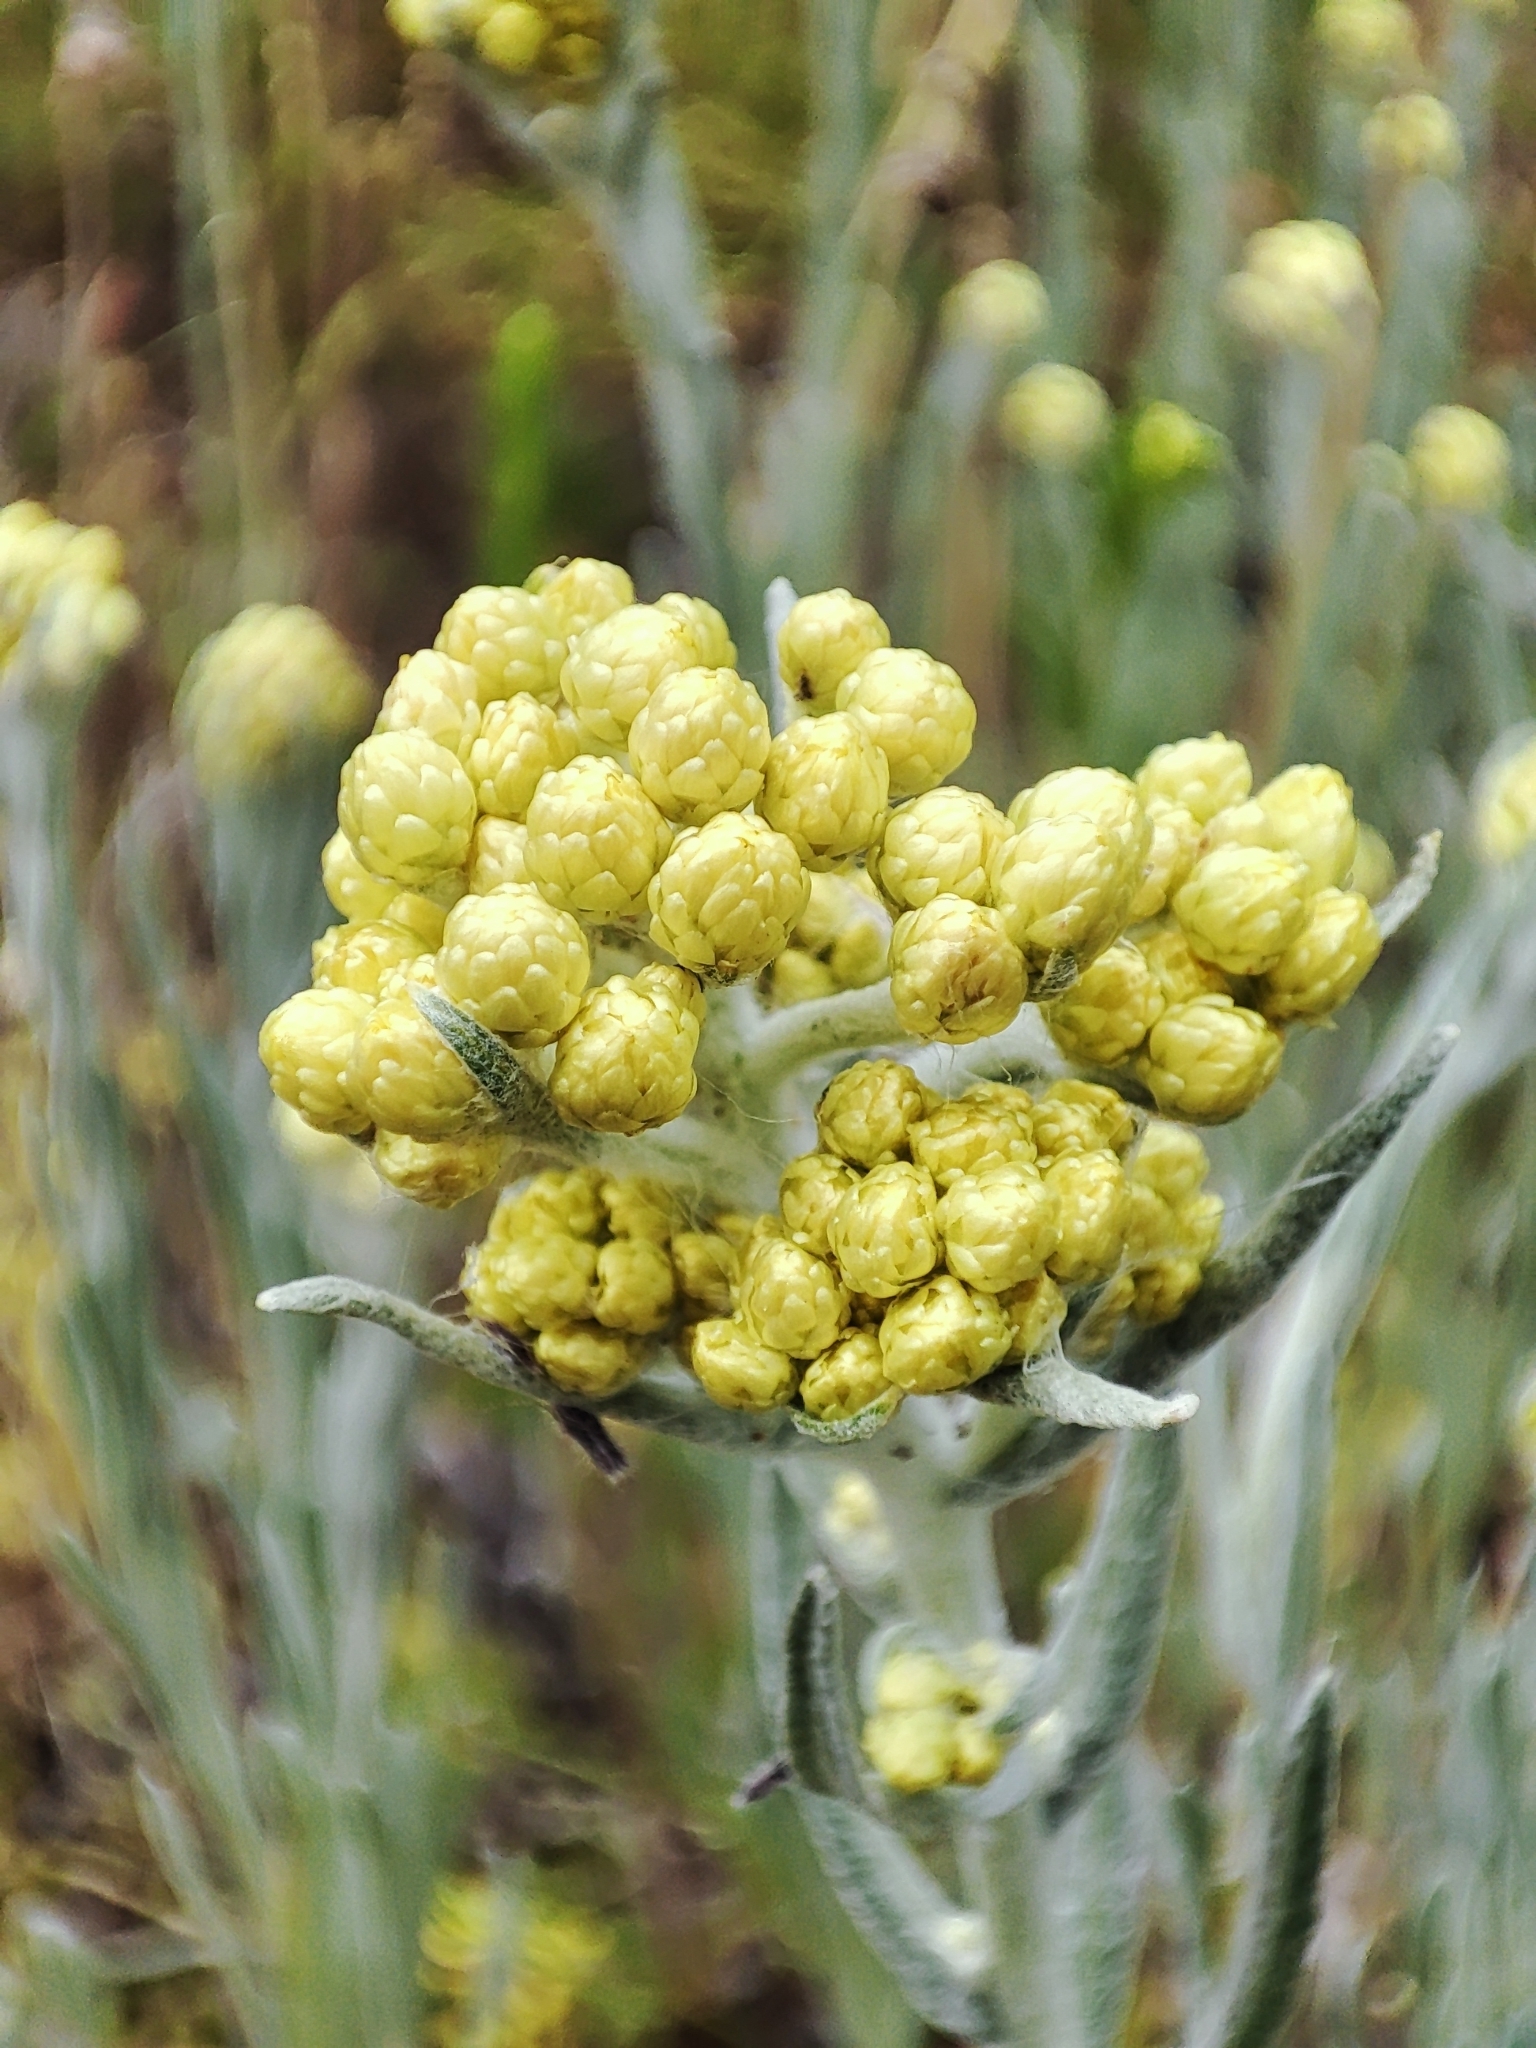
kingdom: Plantae
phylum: Tracheophyta
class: Magnoliopsida
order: Asterales
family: Asteraceae
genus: Helichrysum
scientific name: Helichrysum arenarium
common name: Strawflower
